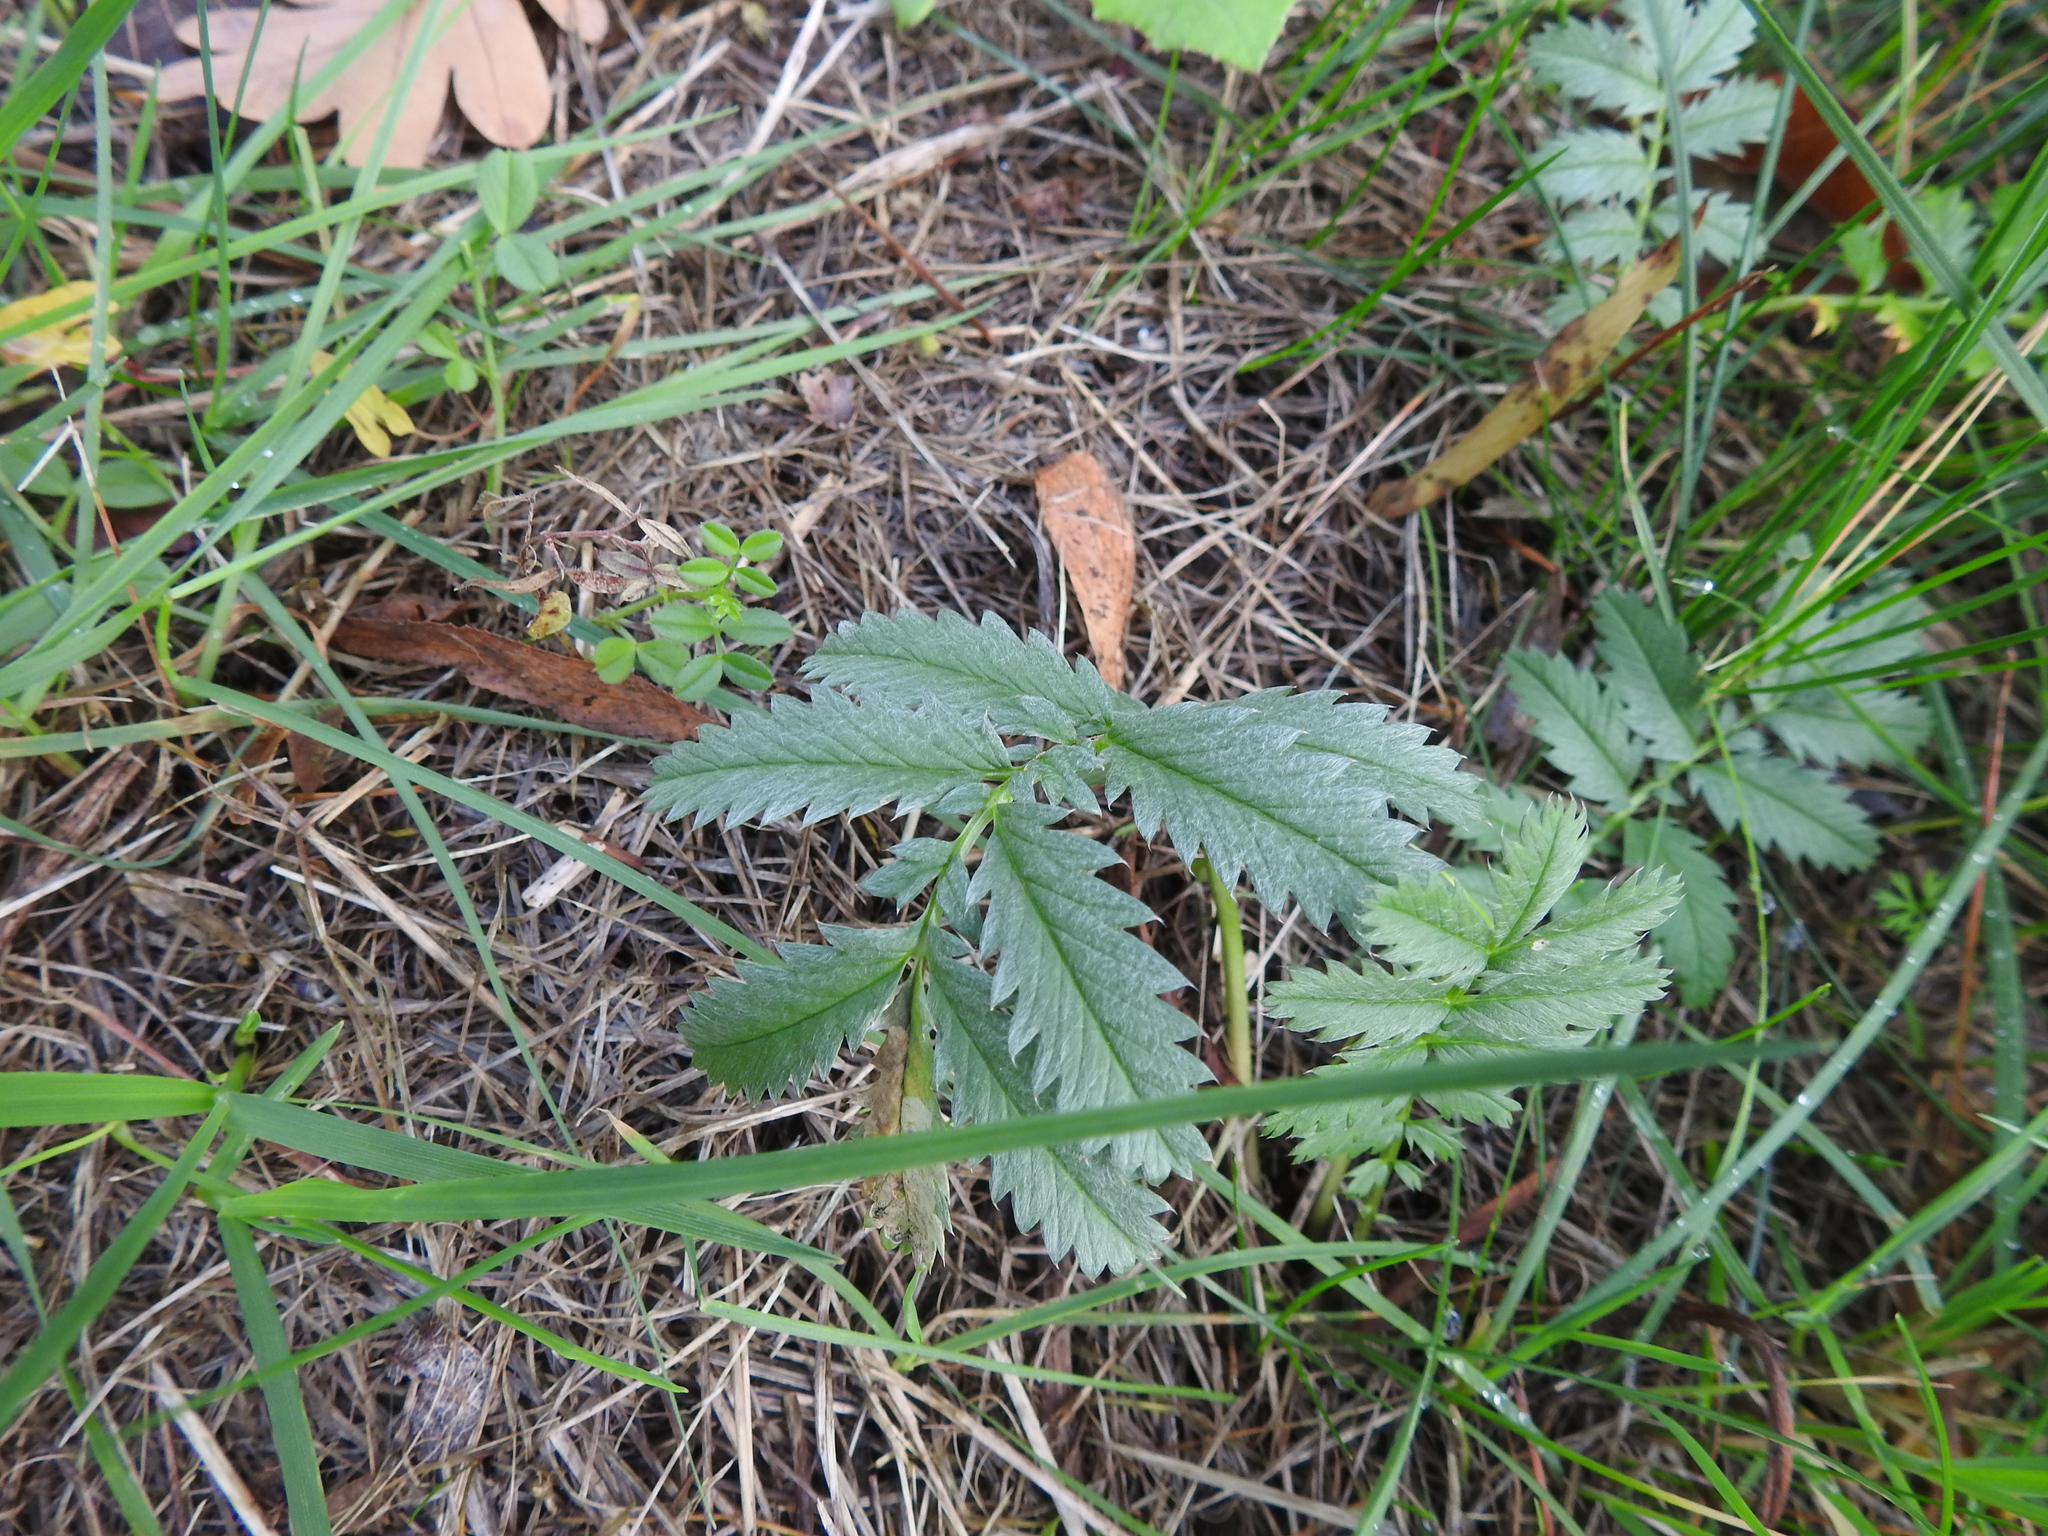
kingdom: Plantae
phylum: Tracheophyta
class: Magnoliopsida
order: Rosales
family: Rosaceae
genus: Argentina
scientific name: Argentina anserina
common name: Common silverweed
